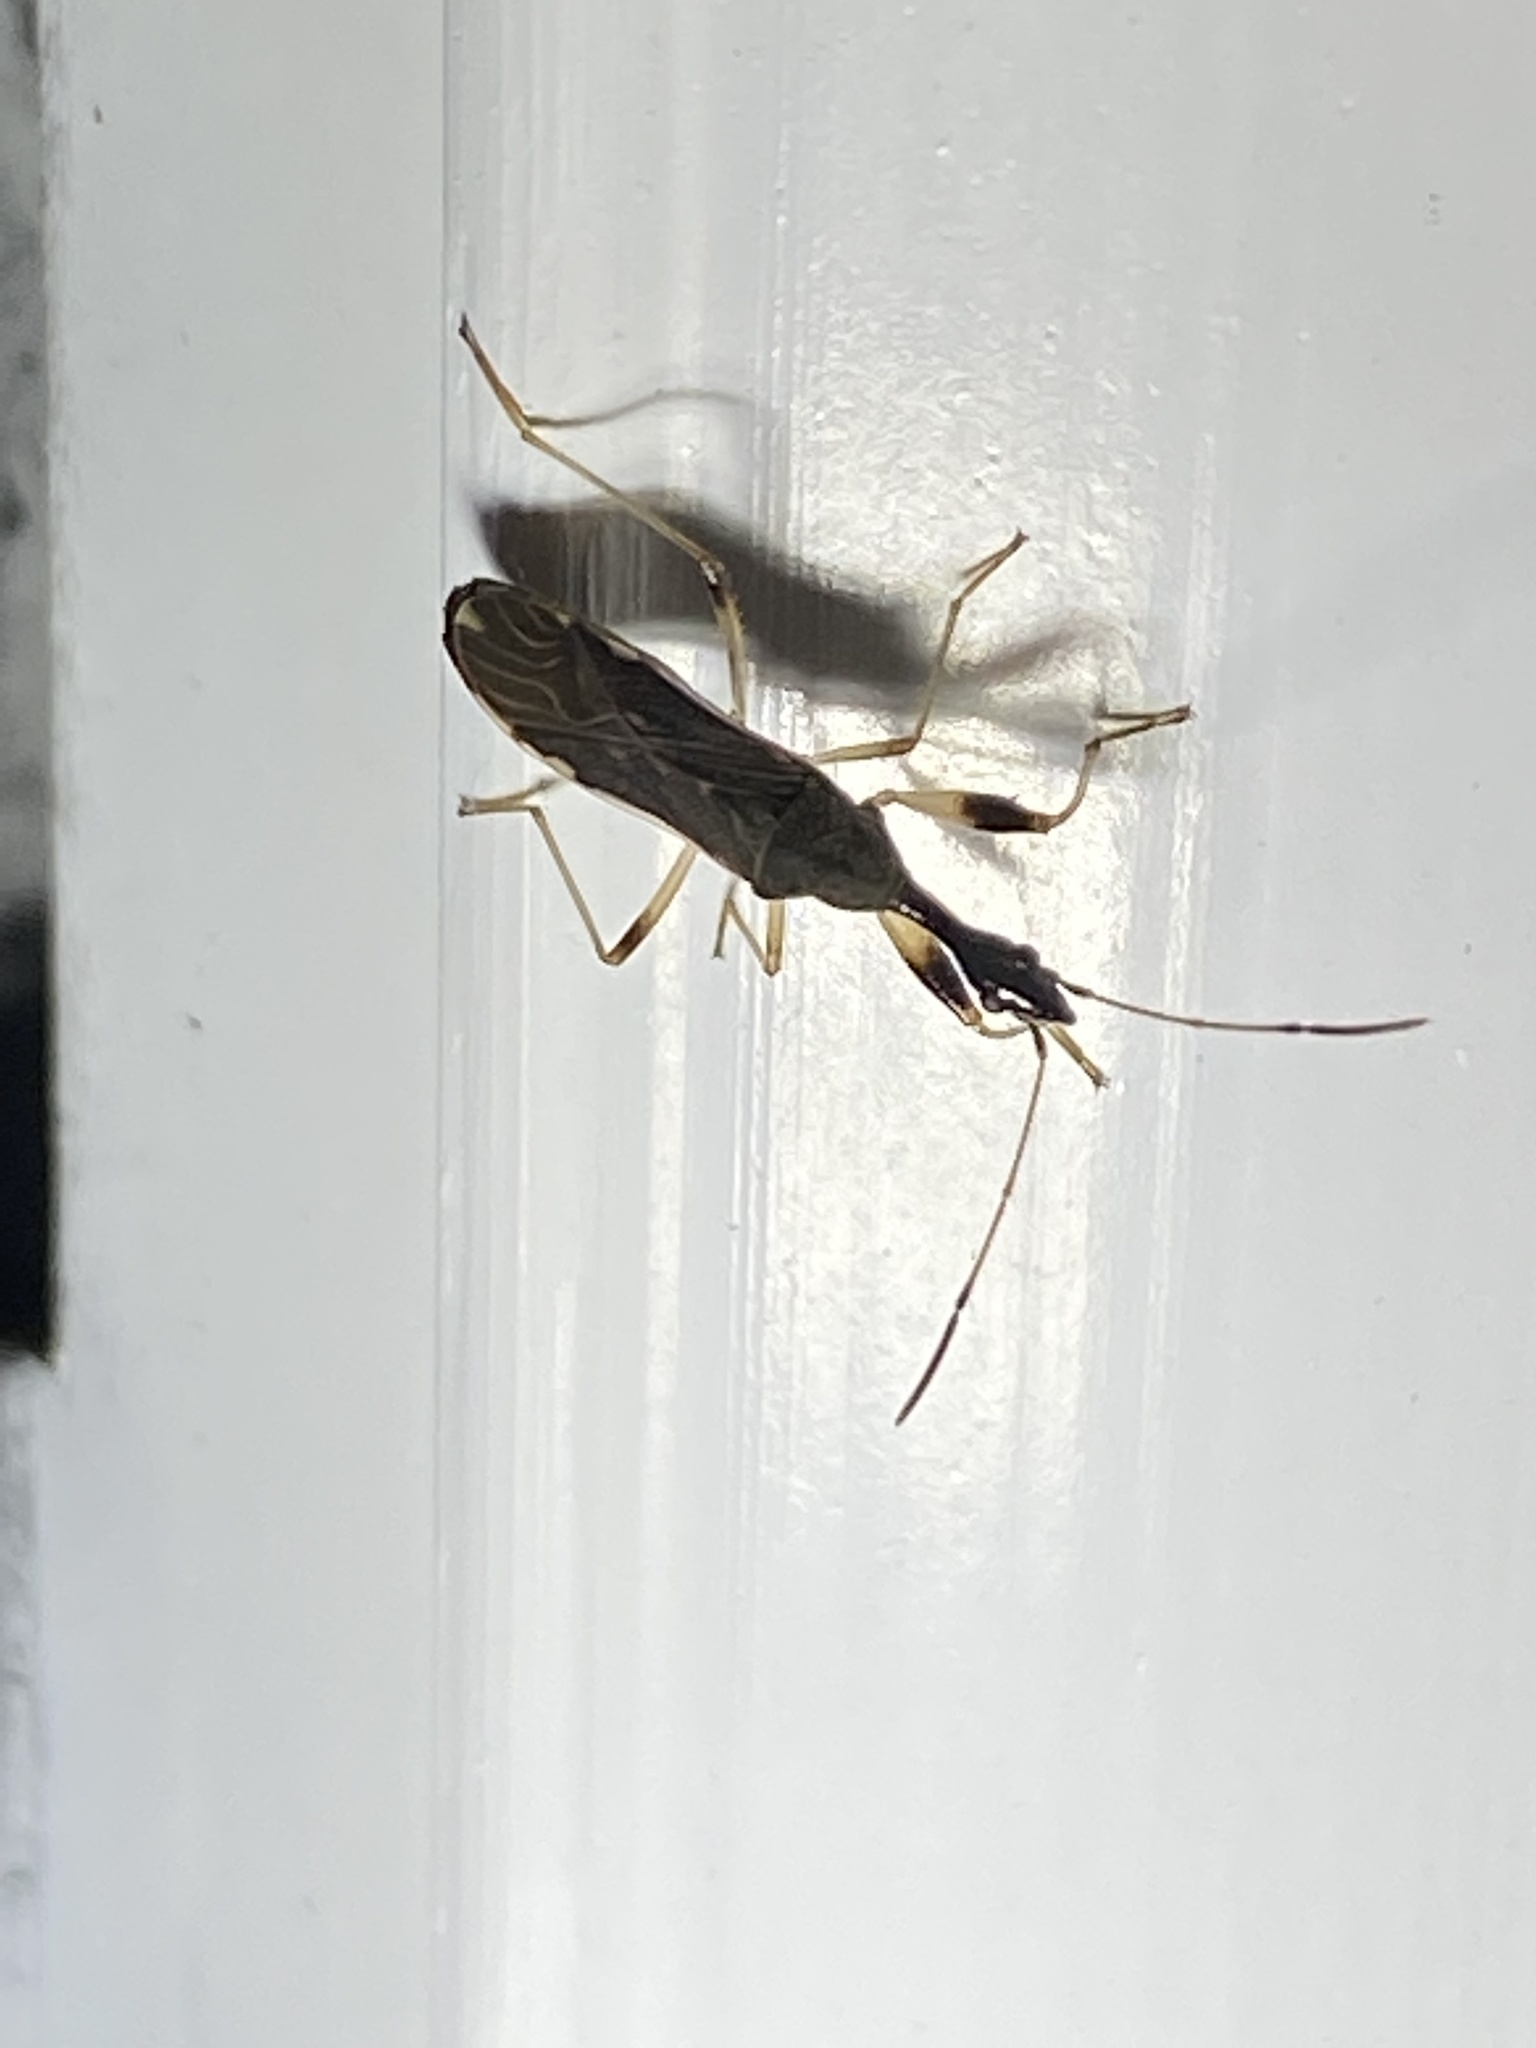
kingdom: Animalia
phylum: Arthropoda
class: Insecta
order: Hemiptera
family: Rhyparochromidae
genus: Myodocha
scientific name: Myodocha serripes
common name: Long-necked seed bug
